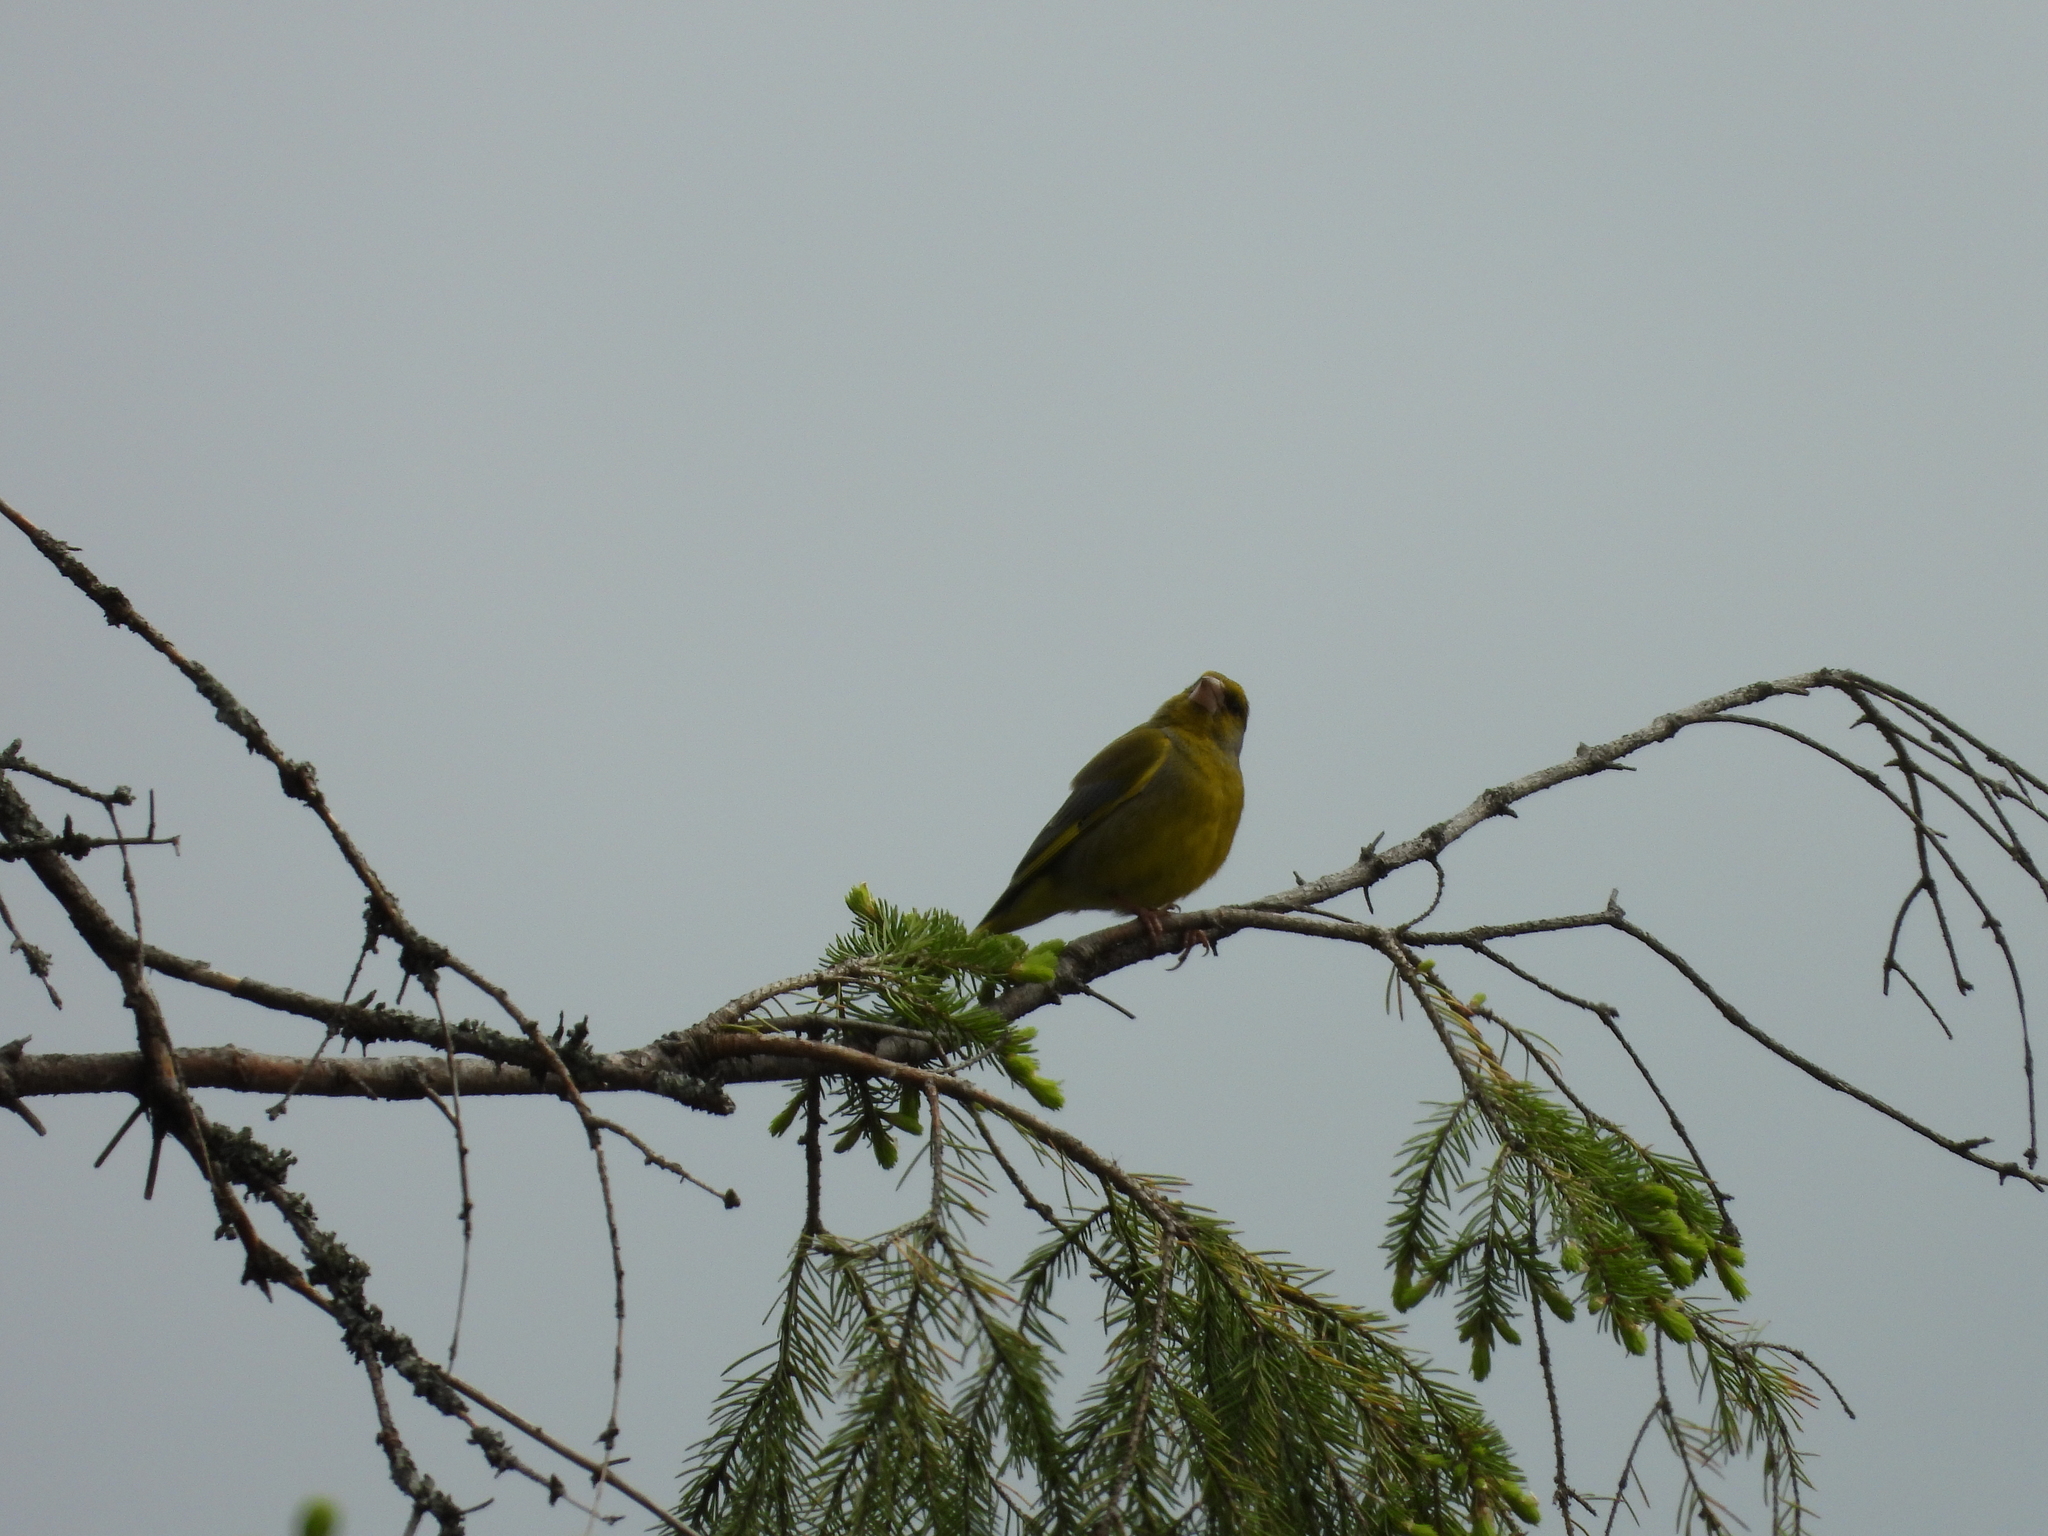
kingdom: Plantae
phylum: Tracheophyta
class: Liliopsida
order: Poales
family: Poaceae
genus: Chloris
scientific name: Chloris chloris
